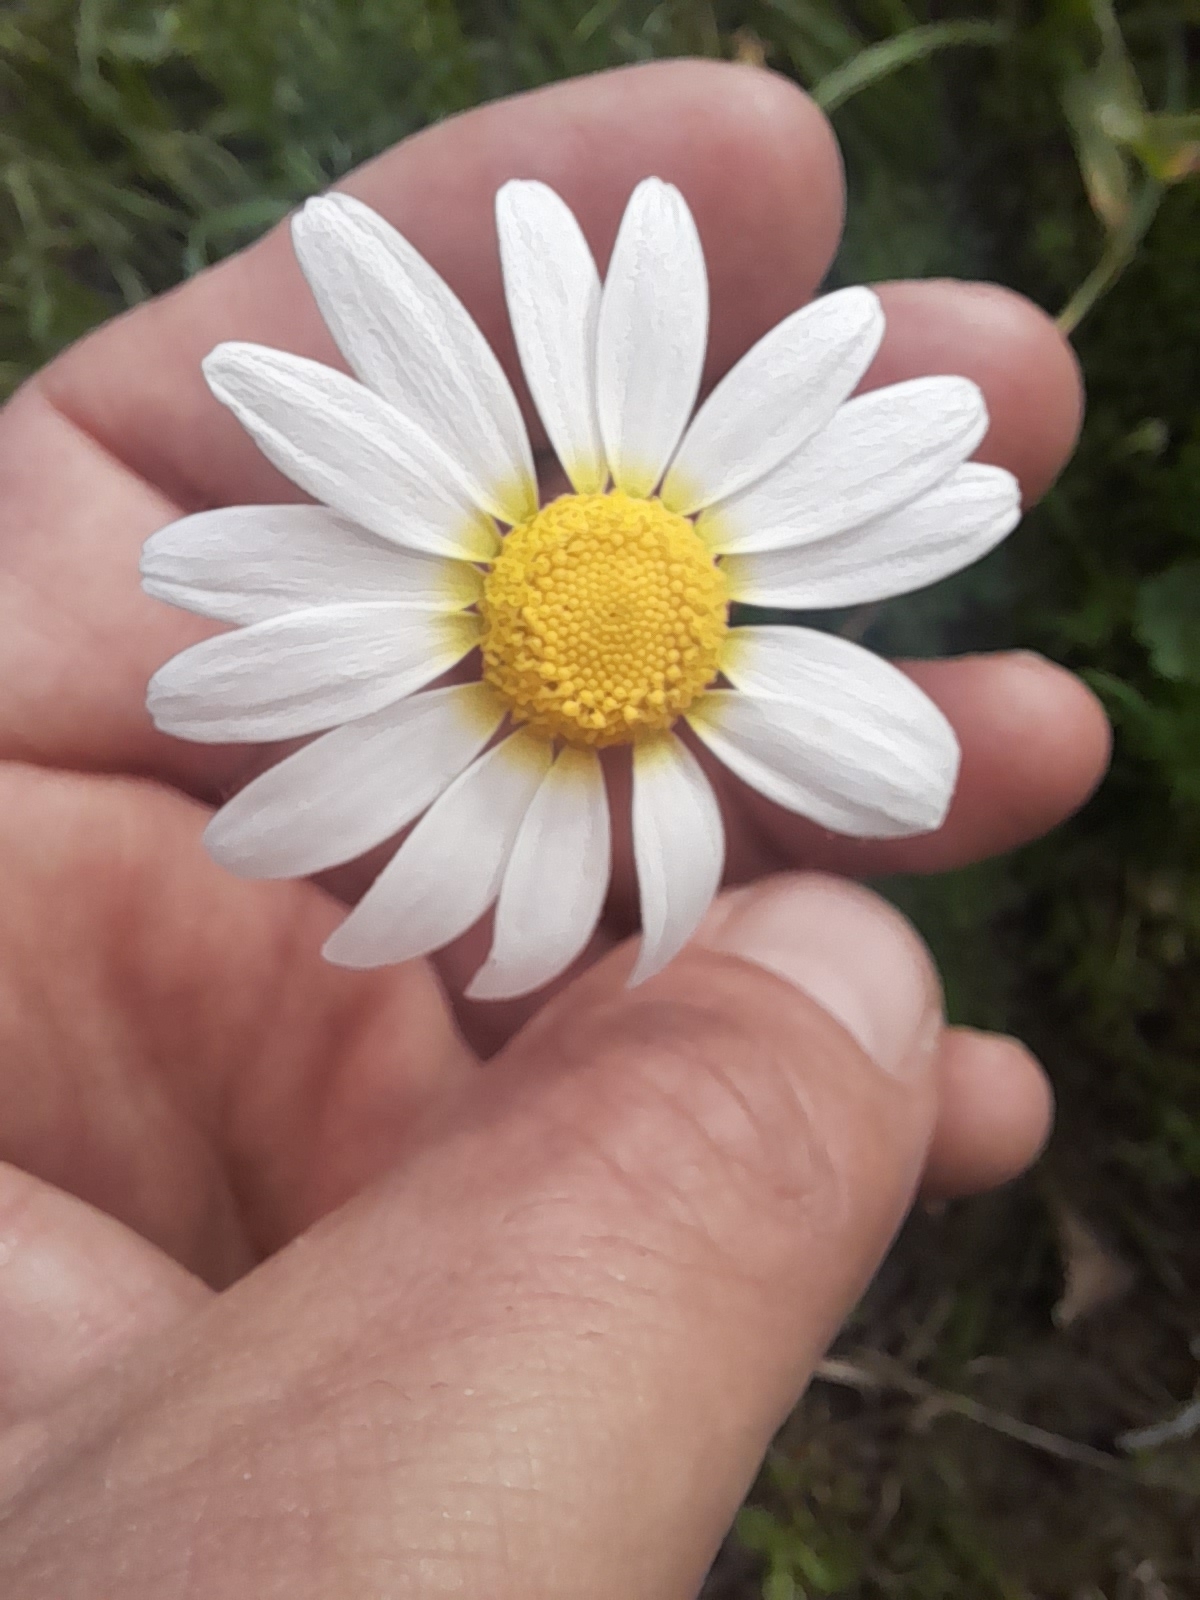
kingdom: Plantae
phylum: Tracheophyta
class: Magnoliopsida
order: Asterales
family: Asteraceae
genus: Chamaemelum
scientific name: Chamaemelum fuscatum
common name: Chamomile
